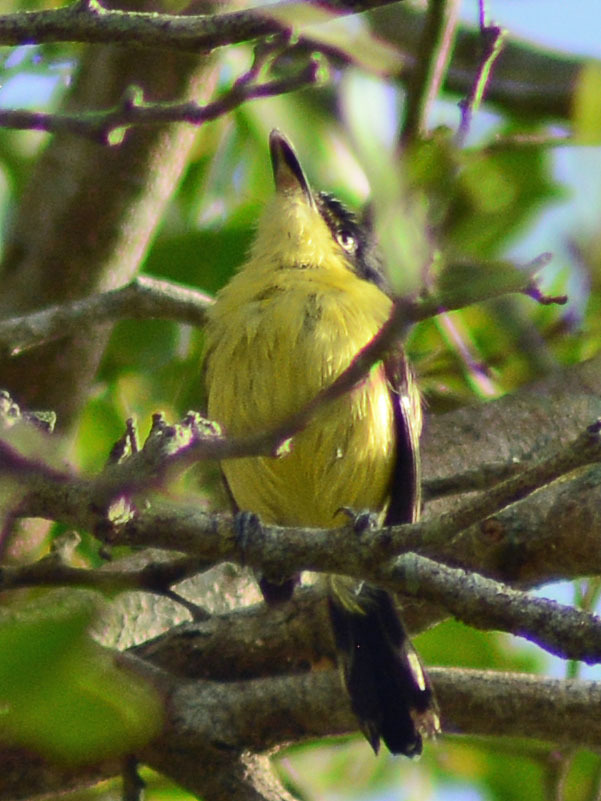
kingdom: Animalia
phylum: Chordata
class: Aves
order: Passeriformes
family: Tyrannidae
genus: Todirostrum
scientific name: Todirostrum cinereum
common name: Common tody-flycatcher
